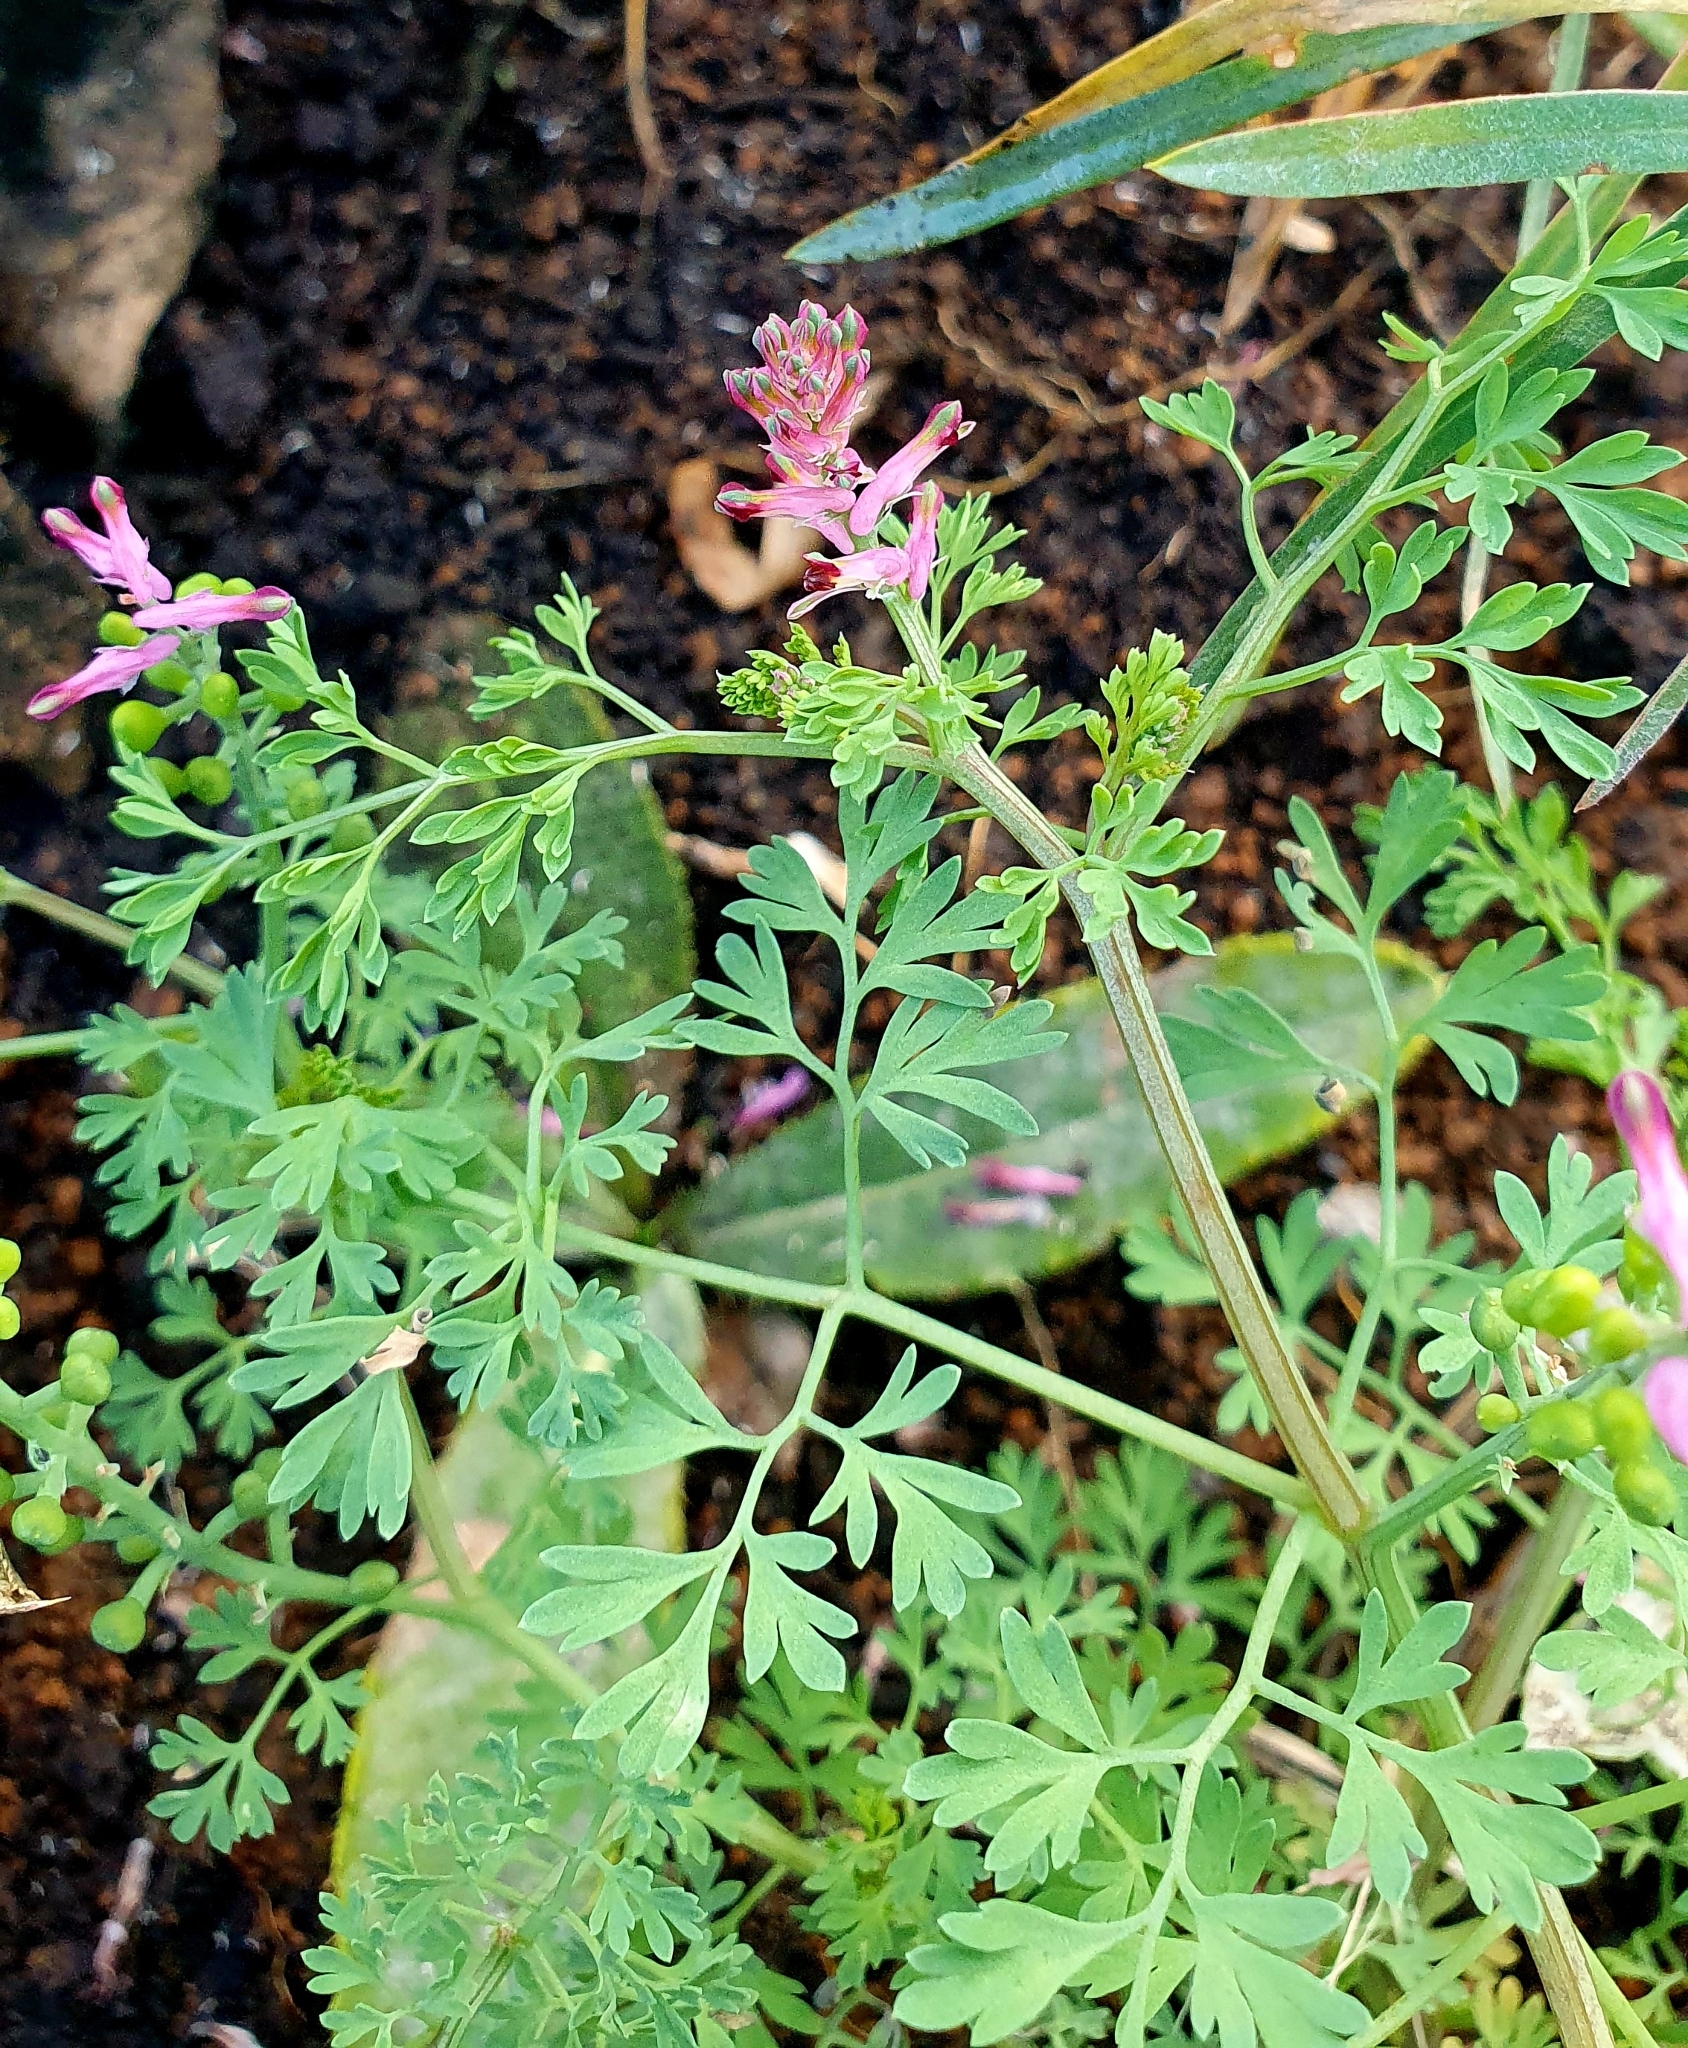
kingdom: Plantae
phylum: Tracheophyta
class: Magnoliopsida
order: Ranunculales
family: Papaveraceae
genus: Fumaria
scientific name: Fumaria schleicheri
